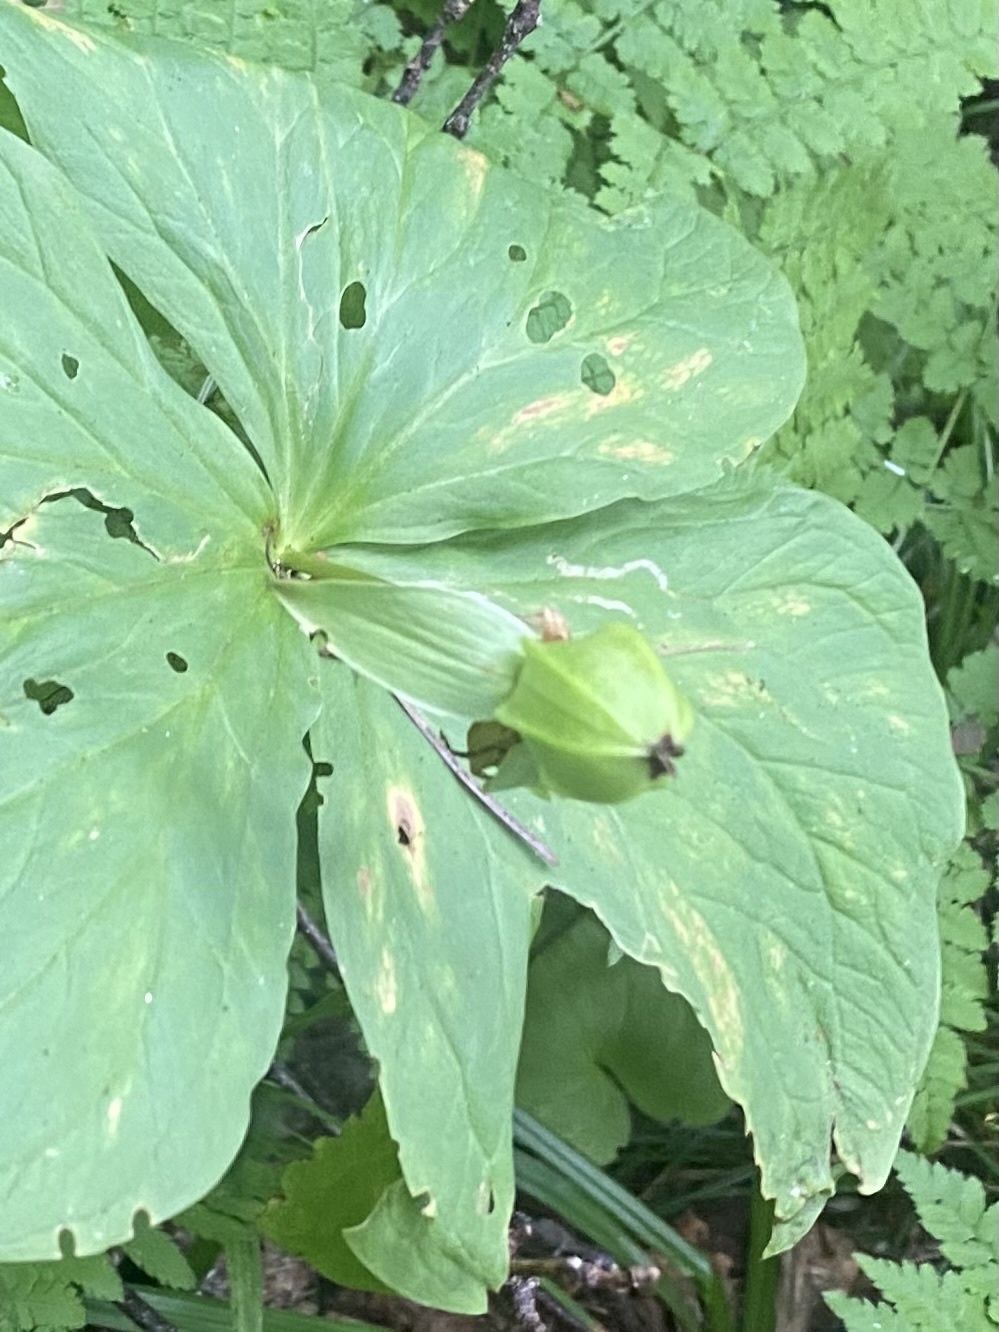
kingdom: Plantae
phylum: Tracheophyta
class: Liliopsida
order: Liliales
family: Melanthiaceae
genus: Trillium
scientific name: Trillium camschatcense
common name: Kamchatka trillium
